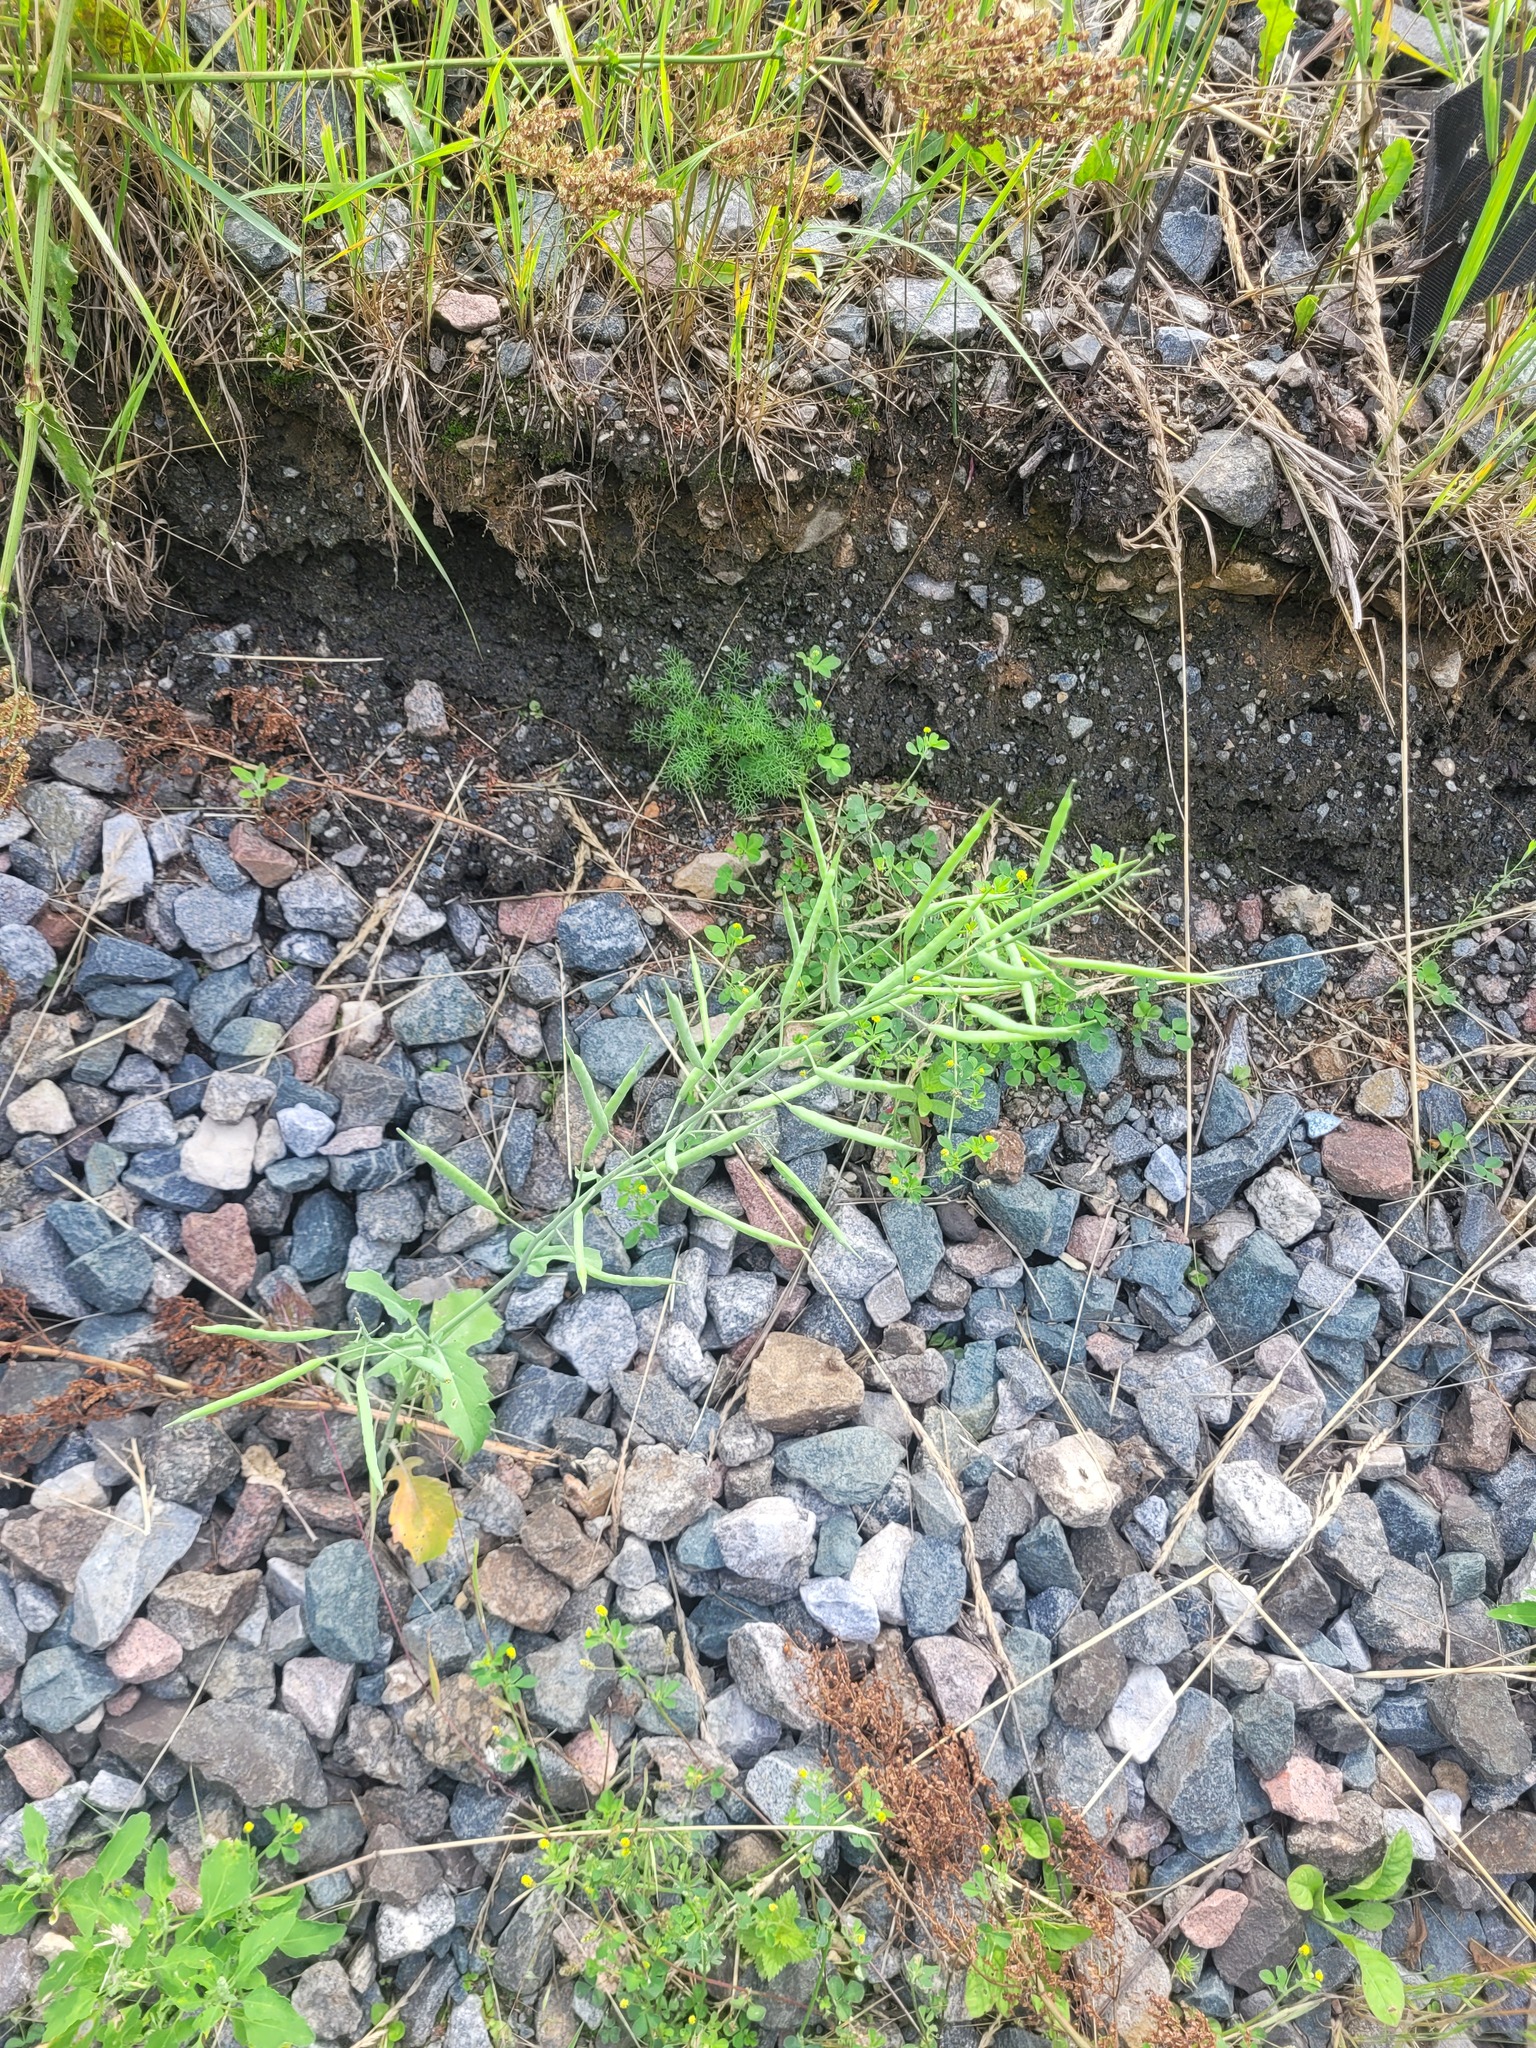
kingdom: Plantae
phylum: Tracheophyta
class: Magnoliopsida
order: Brassicales
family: Brassicaceae
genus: Brassica
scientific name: Brassica napus
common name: Rape
